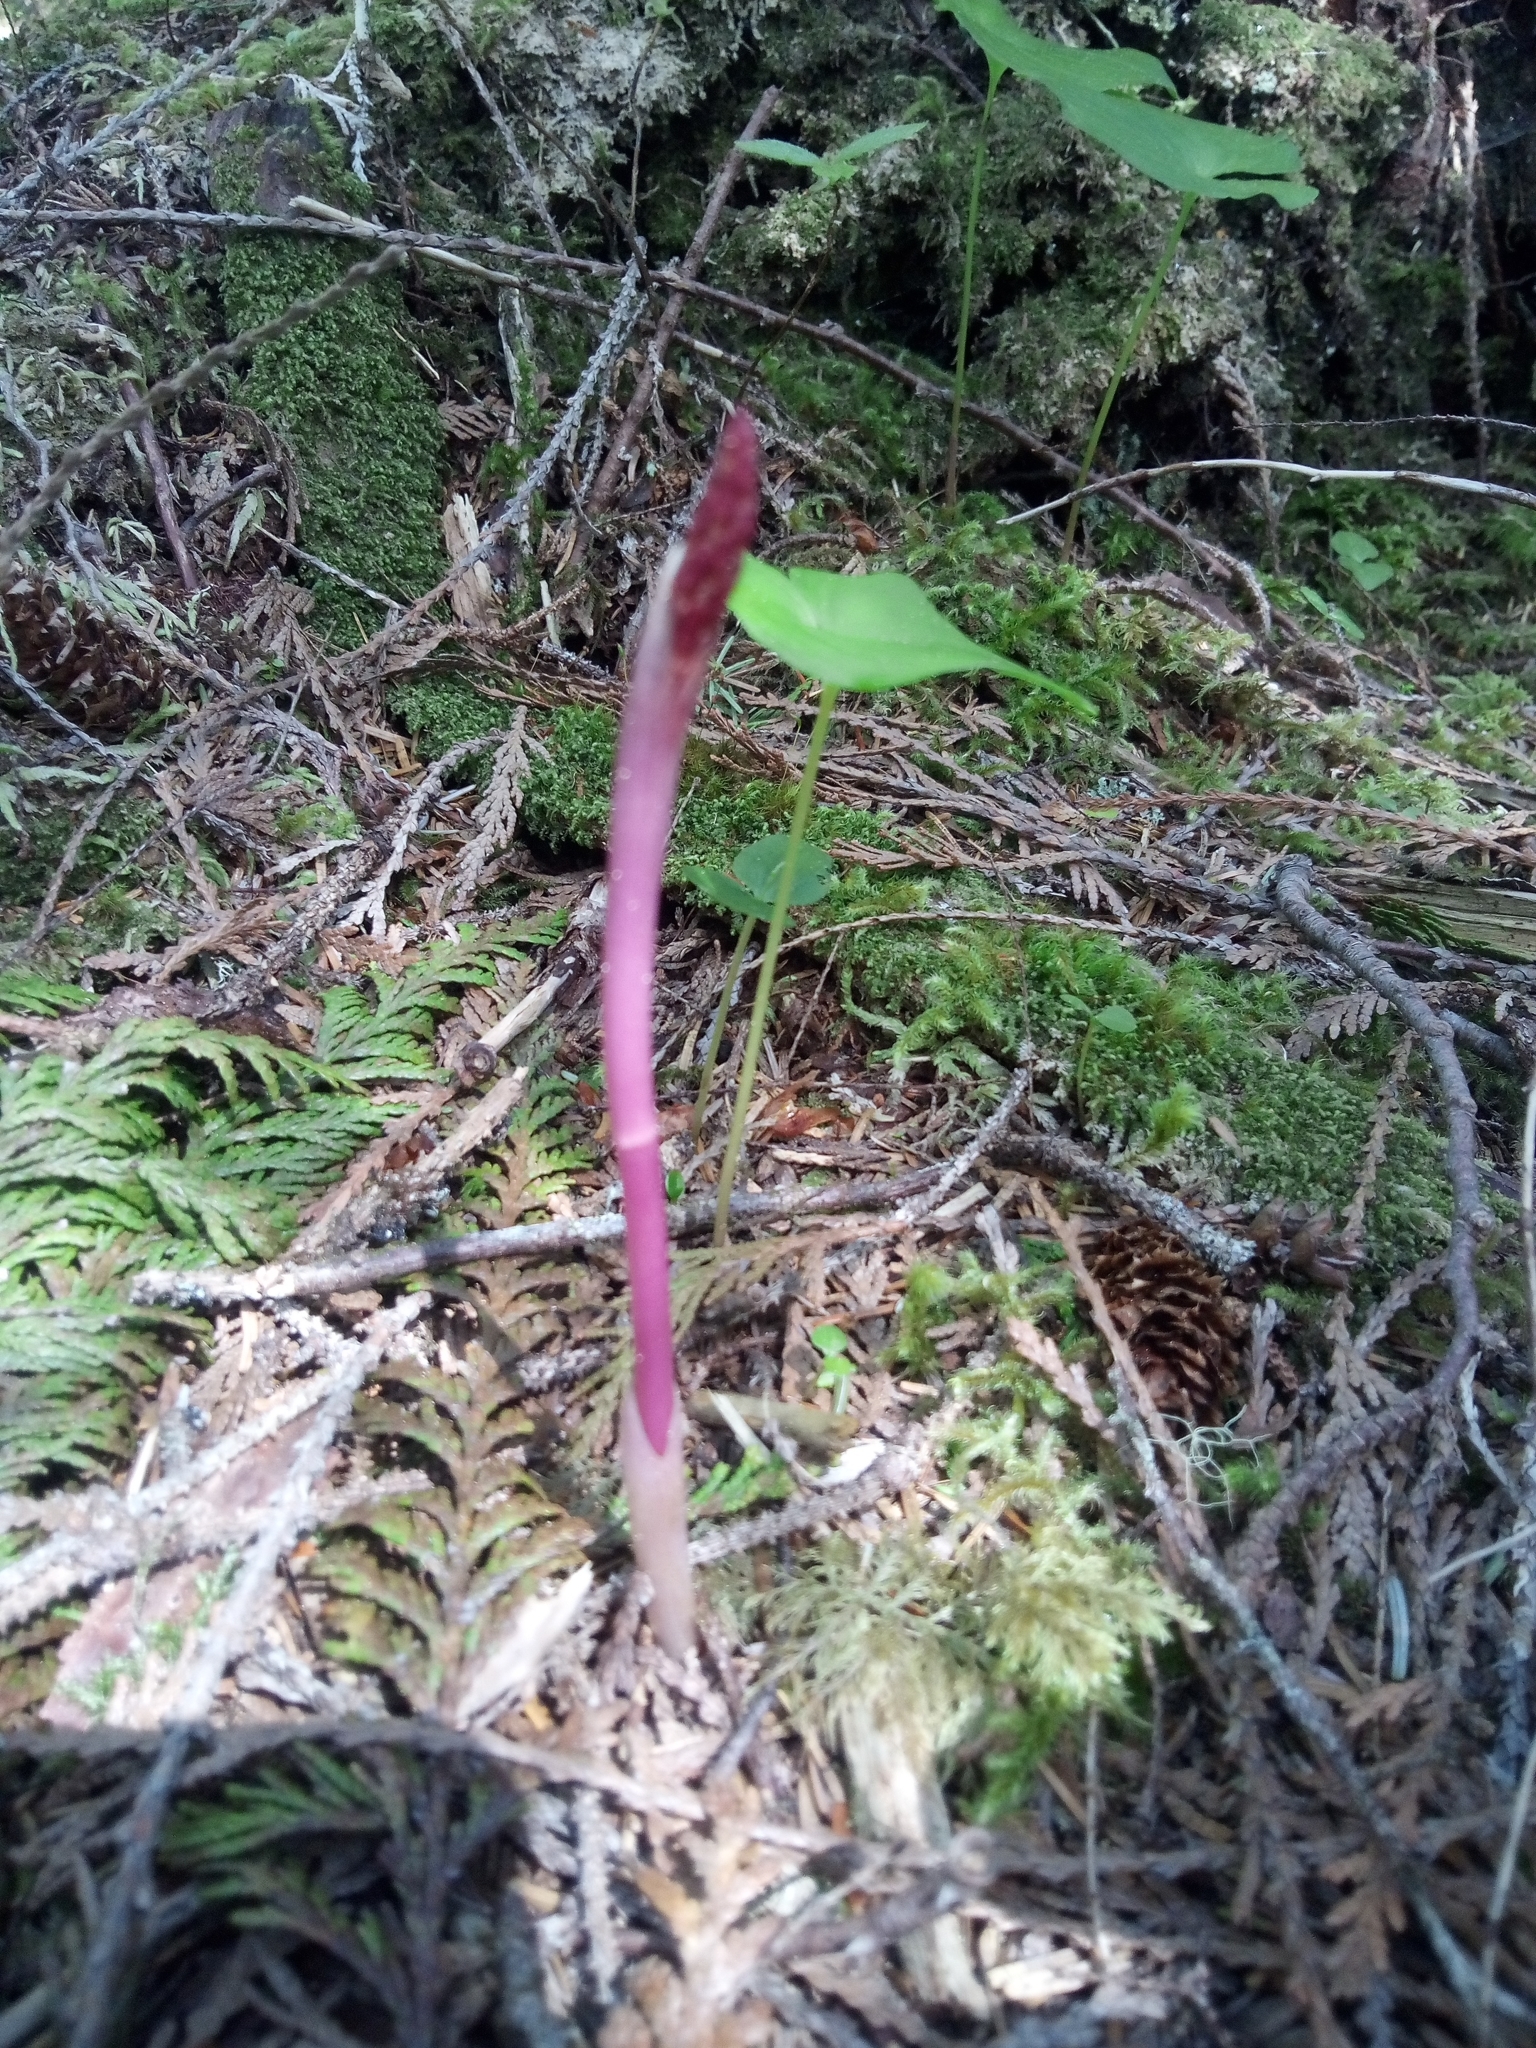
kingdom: Plantae
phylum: Tracheophyta
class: Liliopsida
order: Asparagales
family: Orchidaceae
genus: Corallorhiza
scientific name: Corallorhiza mertensiana
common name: Pacific coralroot
